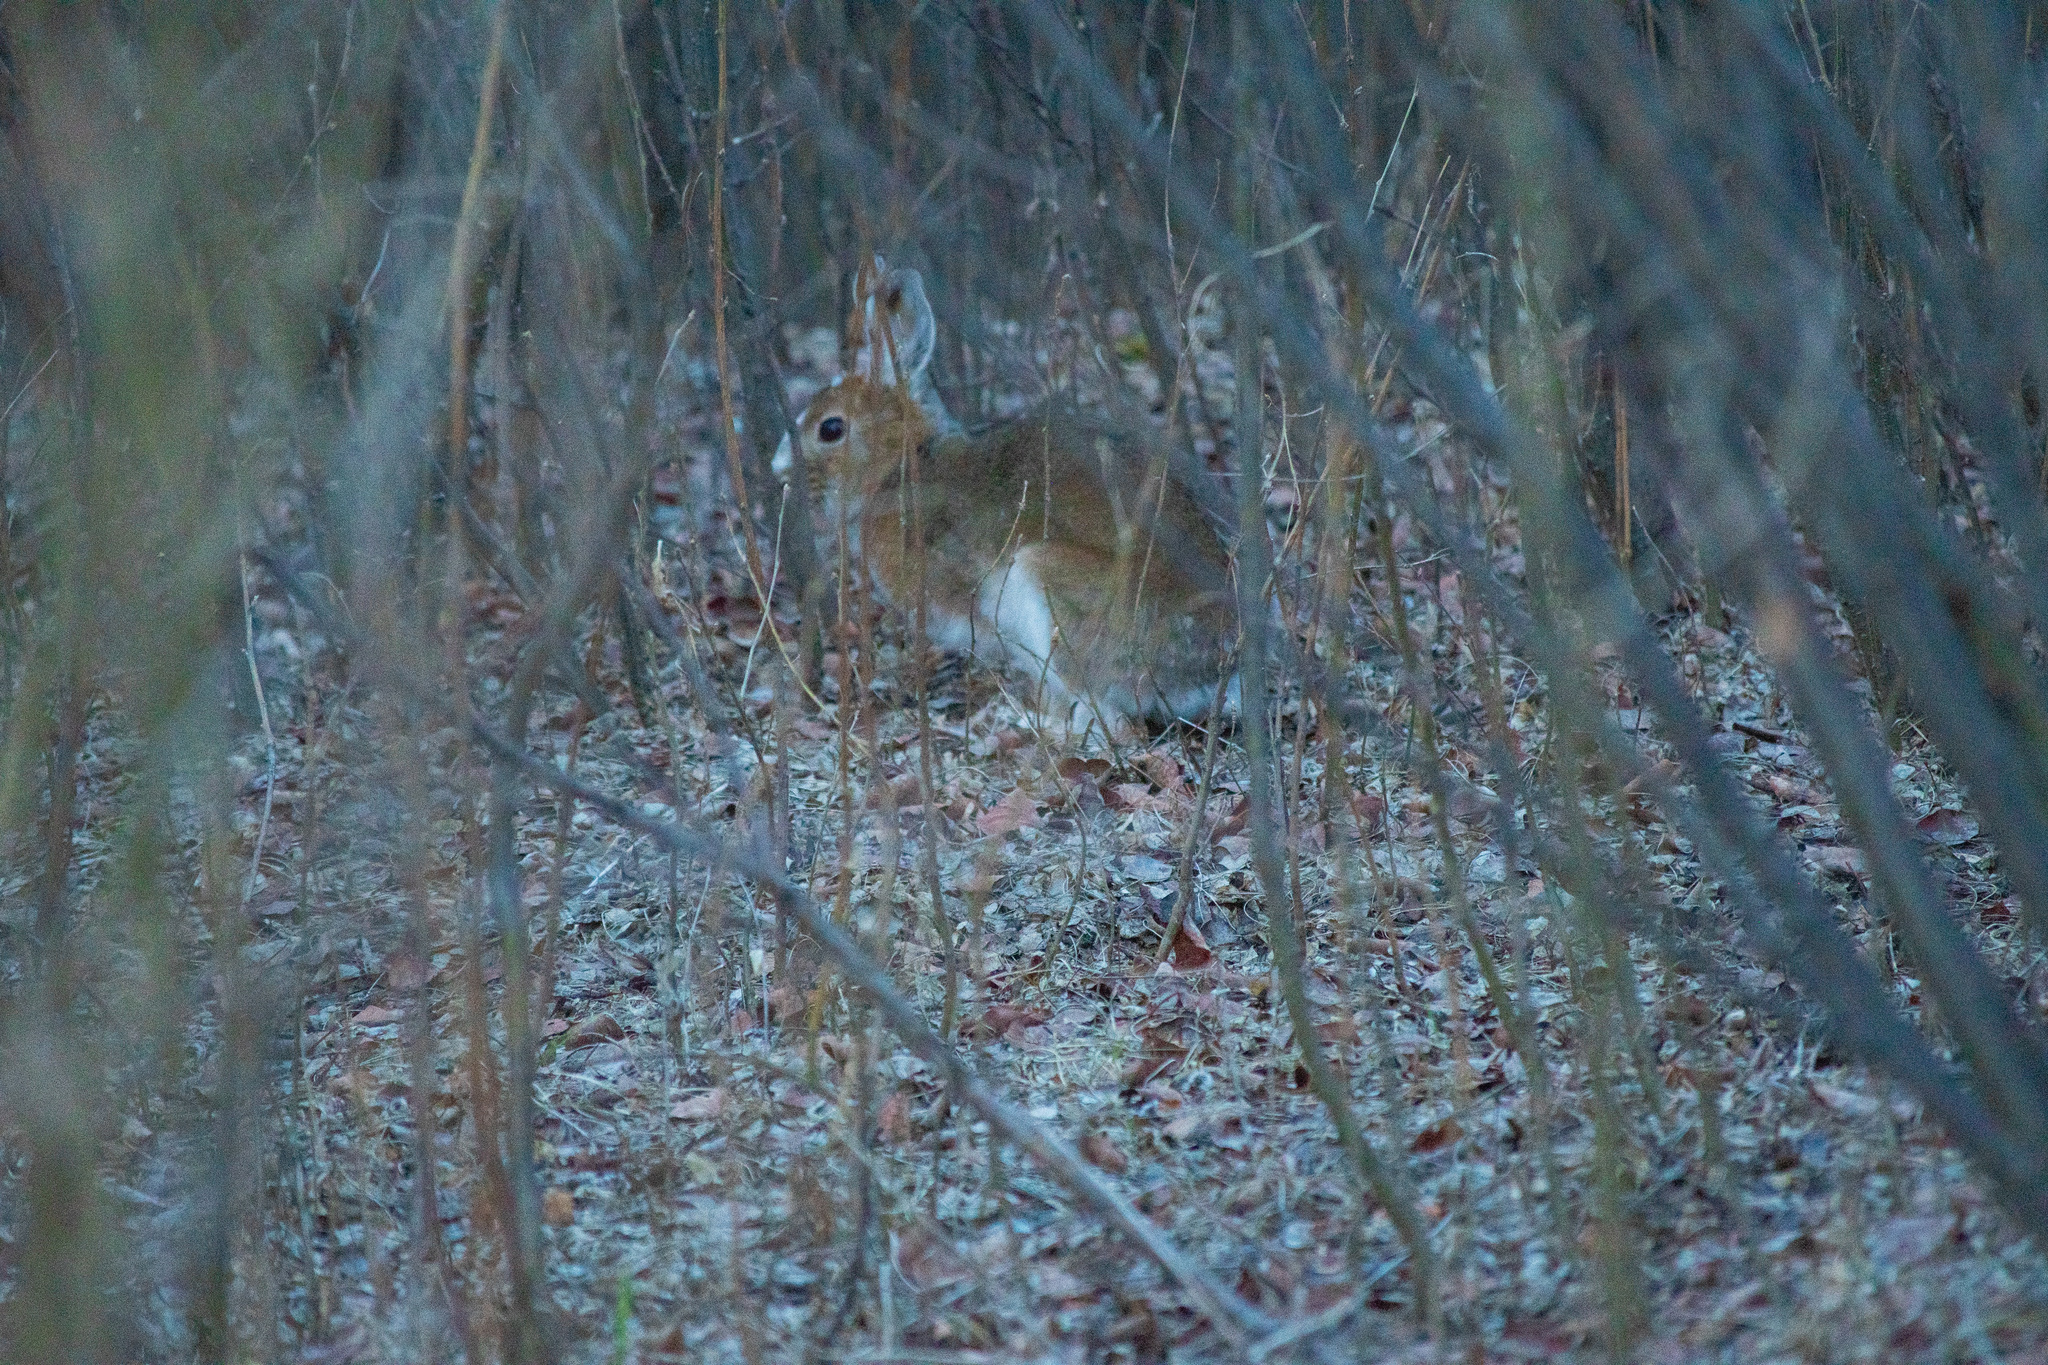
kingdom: Animalia
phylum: Chordata
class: Mammalia
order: Lagomorpha
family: Leporidae
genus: Lepus
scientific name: Lepus americanus
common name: Snowshoe hare
